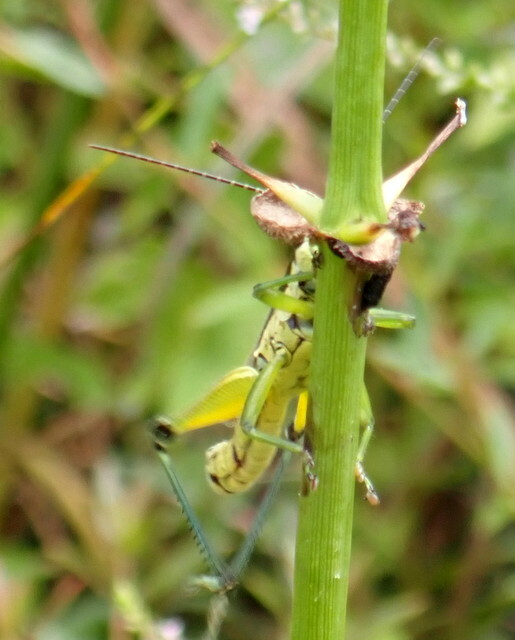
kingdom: Animalia
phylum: Arthropoda
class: Insecta
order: Orthoptera
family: Acrididae
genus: Paroxya
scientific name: Paroxya clavuligera
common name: Olive-green swamp grasshopper
